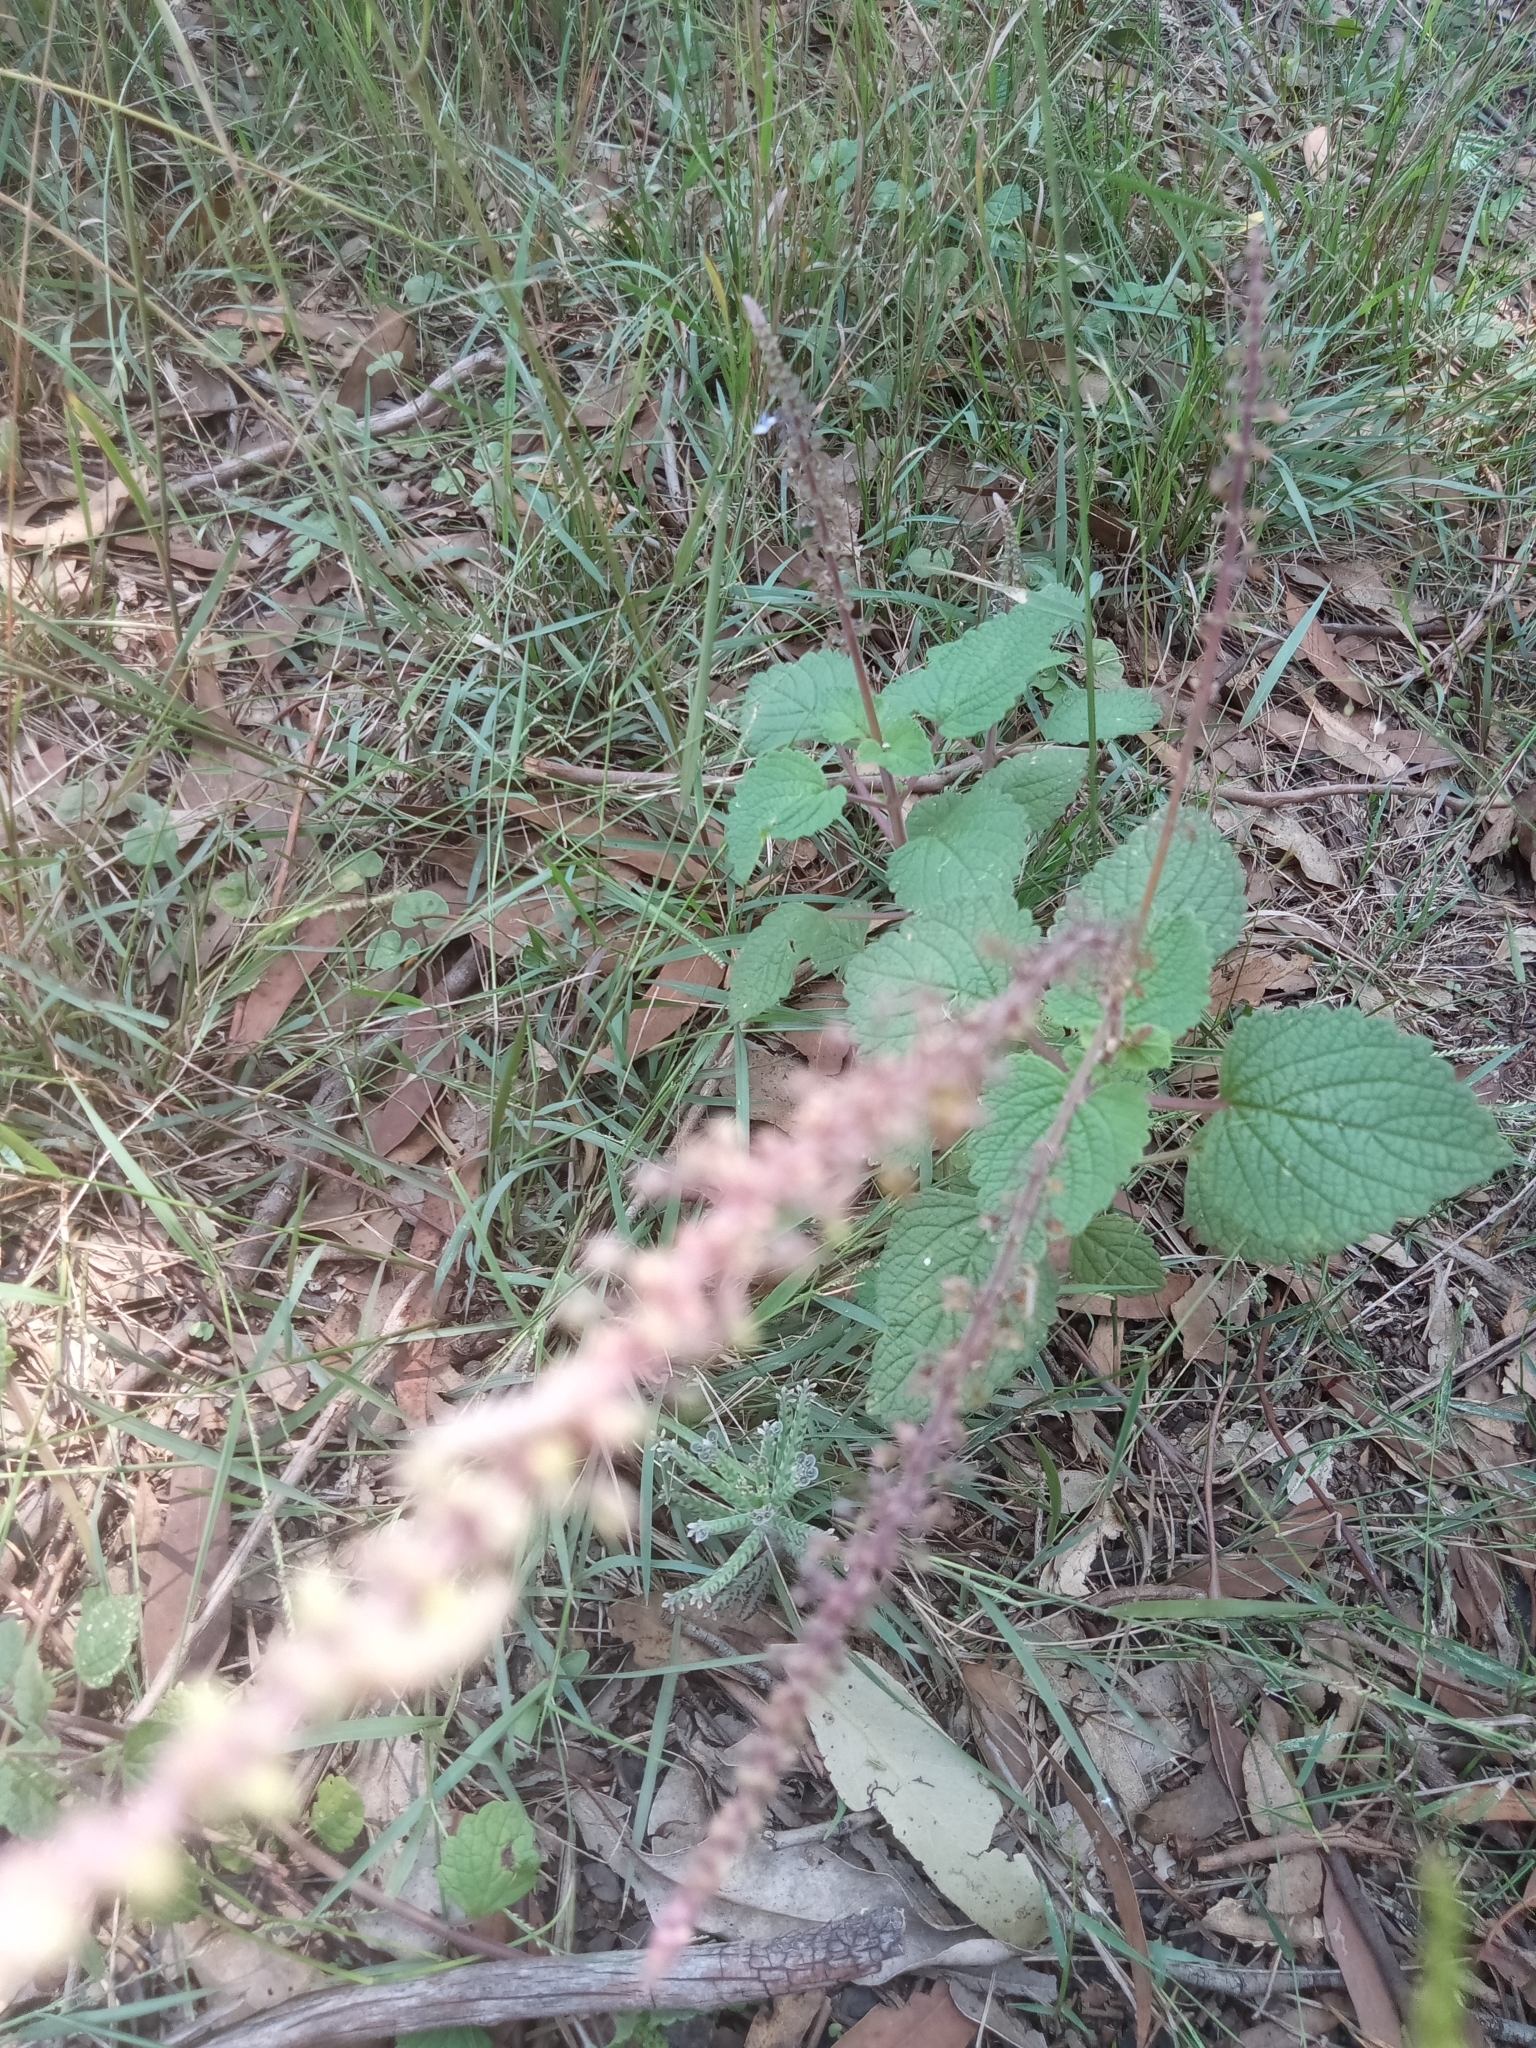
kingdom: Plantae
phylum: Tracheophyta
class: Magnoliopsida
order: Lamiales
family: Lamiaceae
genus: Coleus
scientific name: Coleus australis
